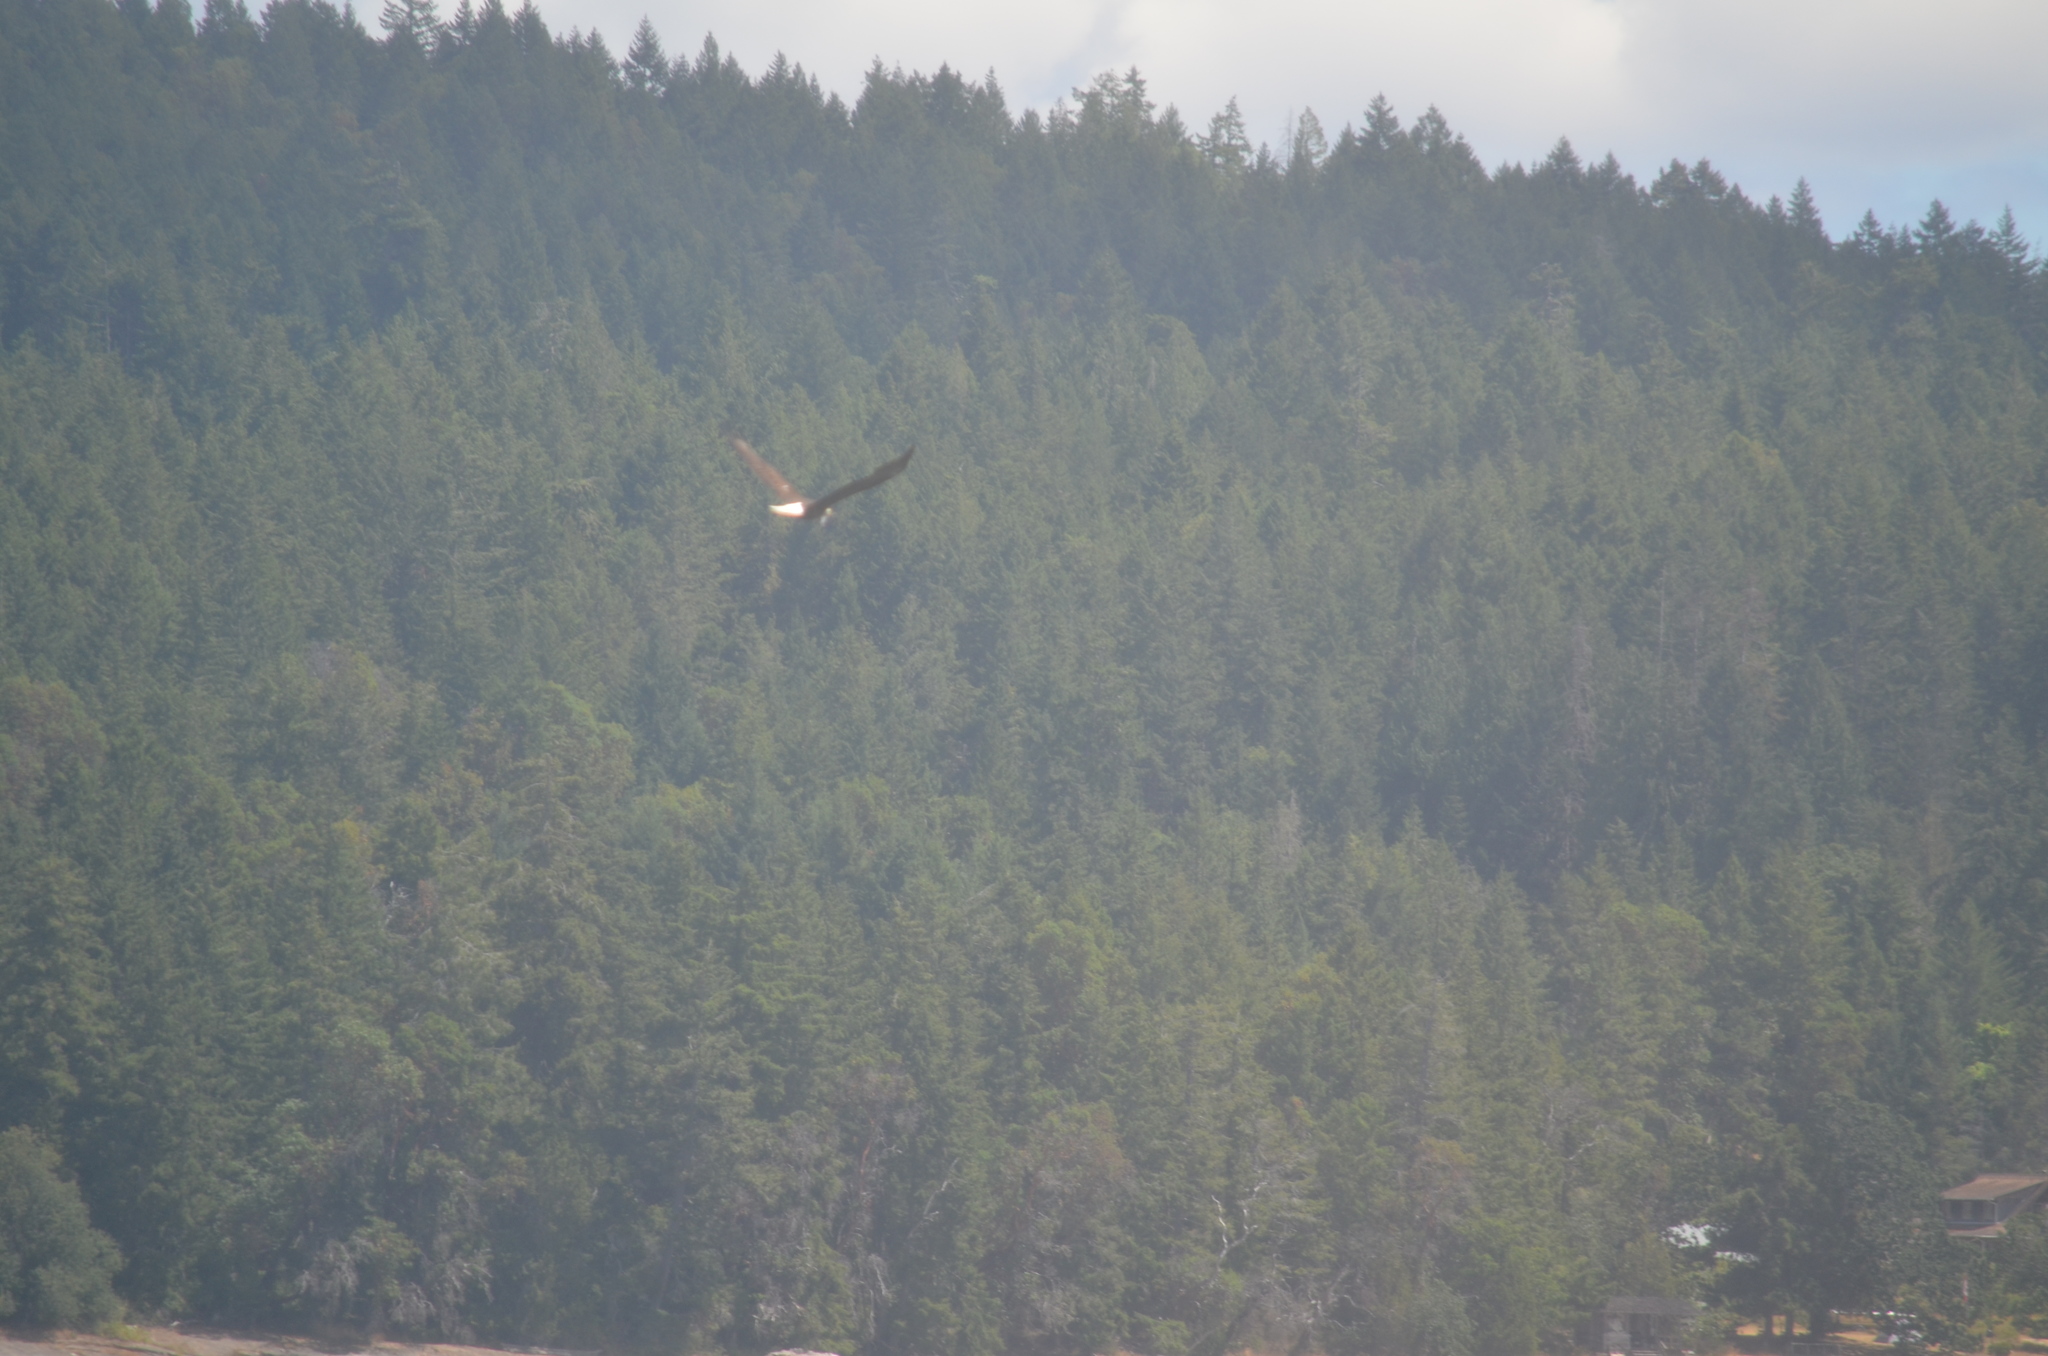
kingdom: Animalia
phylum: Chordata
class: Aves
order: Accipitriformes
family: Accipitridae
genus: Haliaeetus
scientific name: Haliaeetus leucocephalus
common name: Bald eagle
